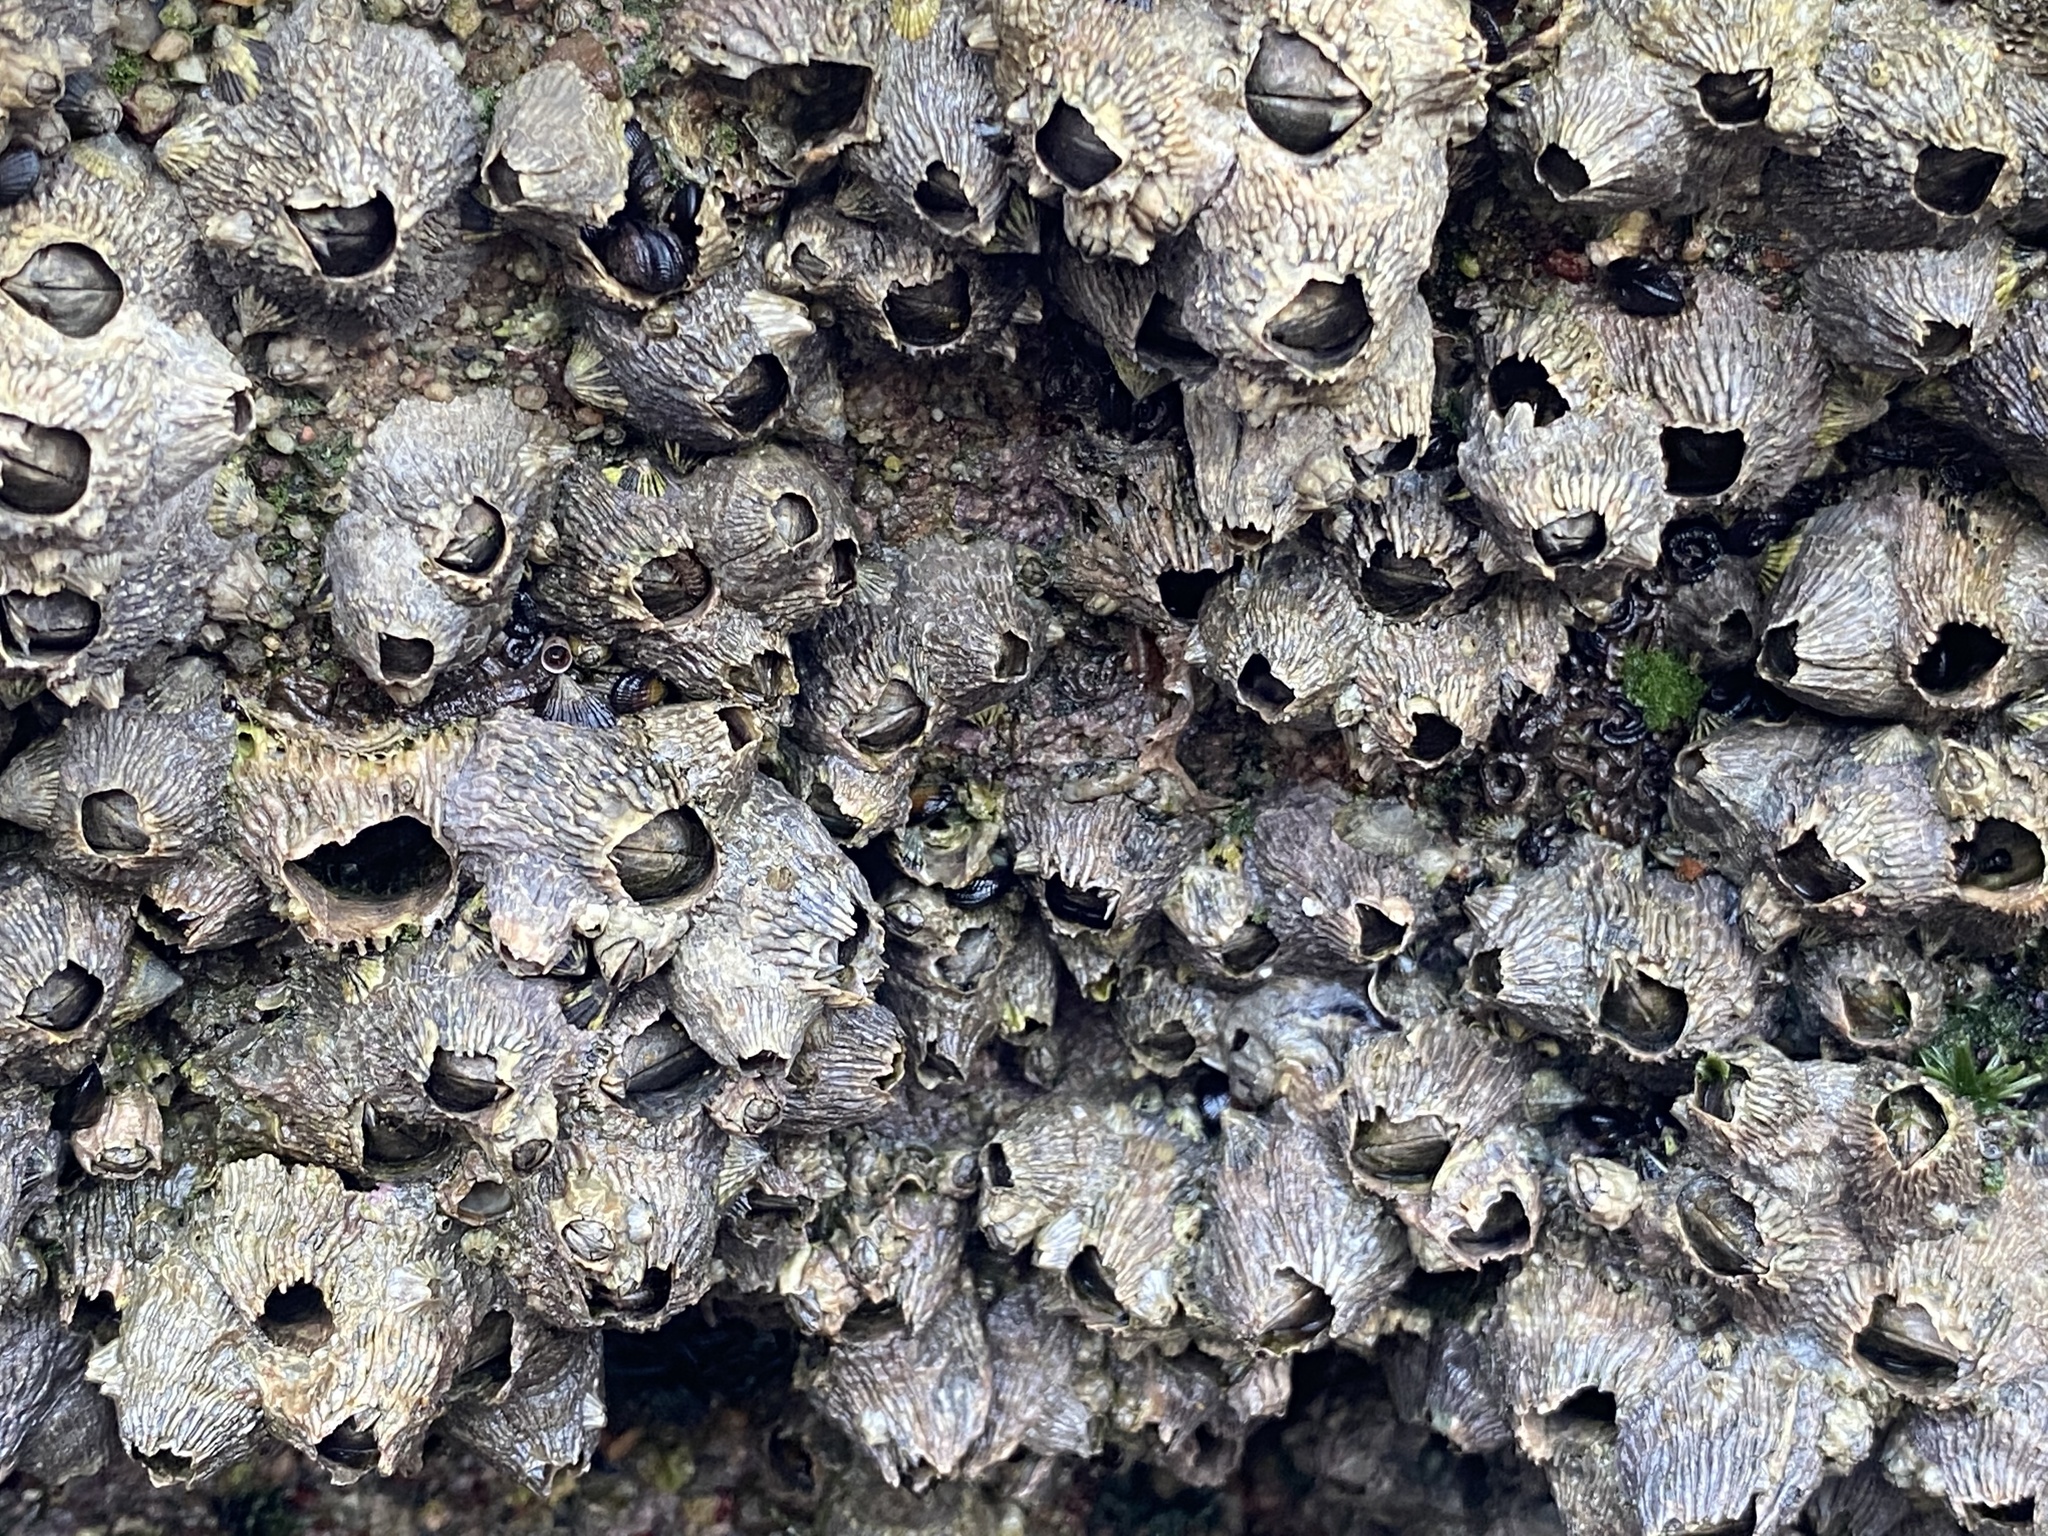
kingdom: Animalia
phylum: Arthropoda
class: Maxillopoda
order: Sessilia
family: Tetraclitidae
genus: Tetraclita
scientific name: Tetraclita stalactifera
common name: Ribbed barnacle
